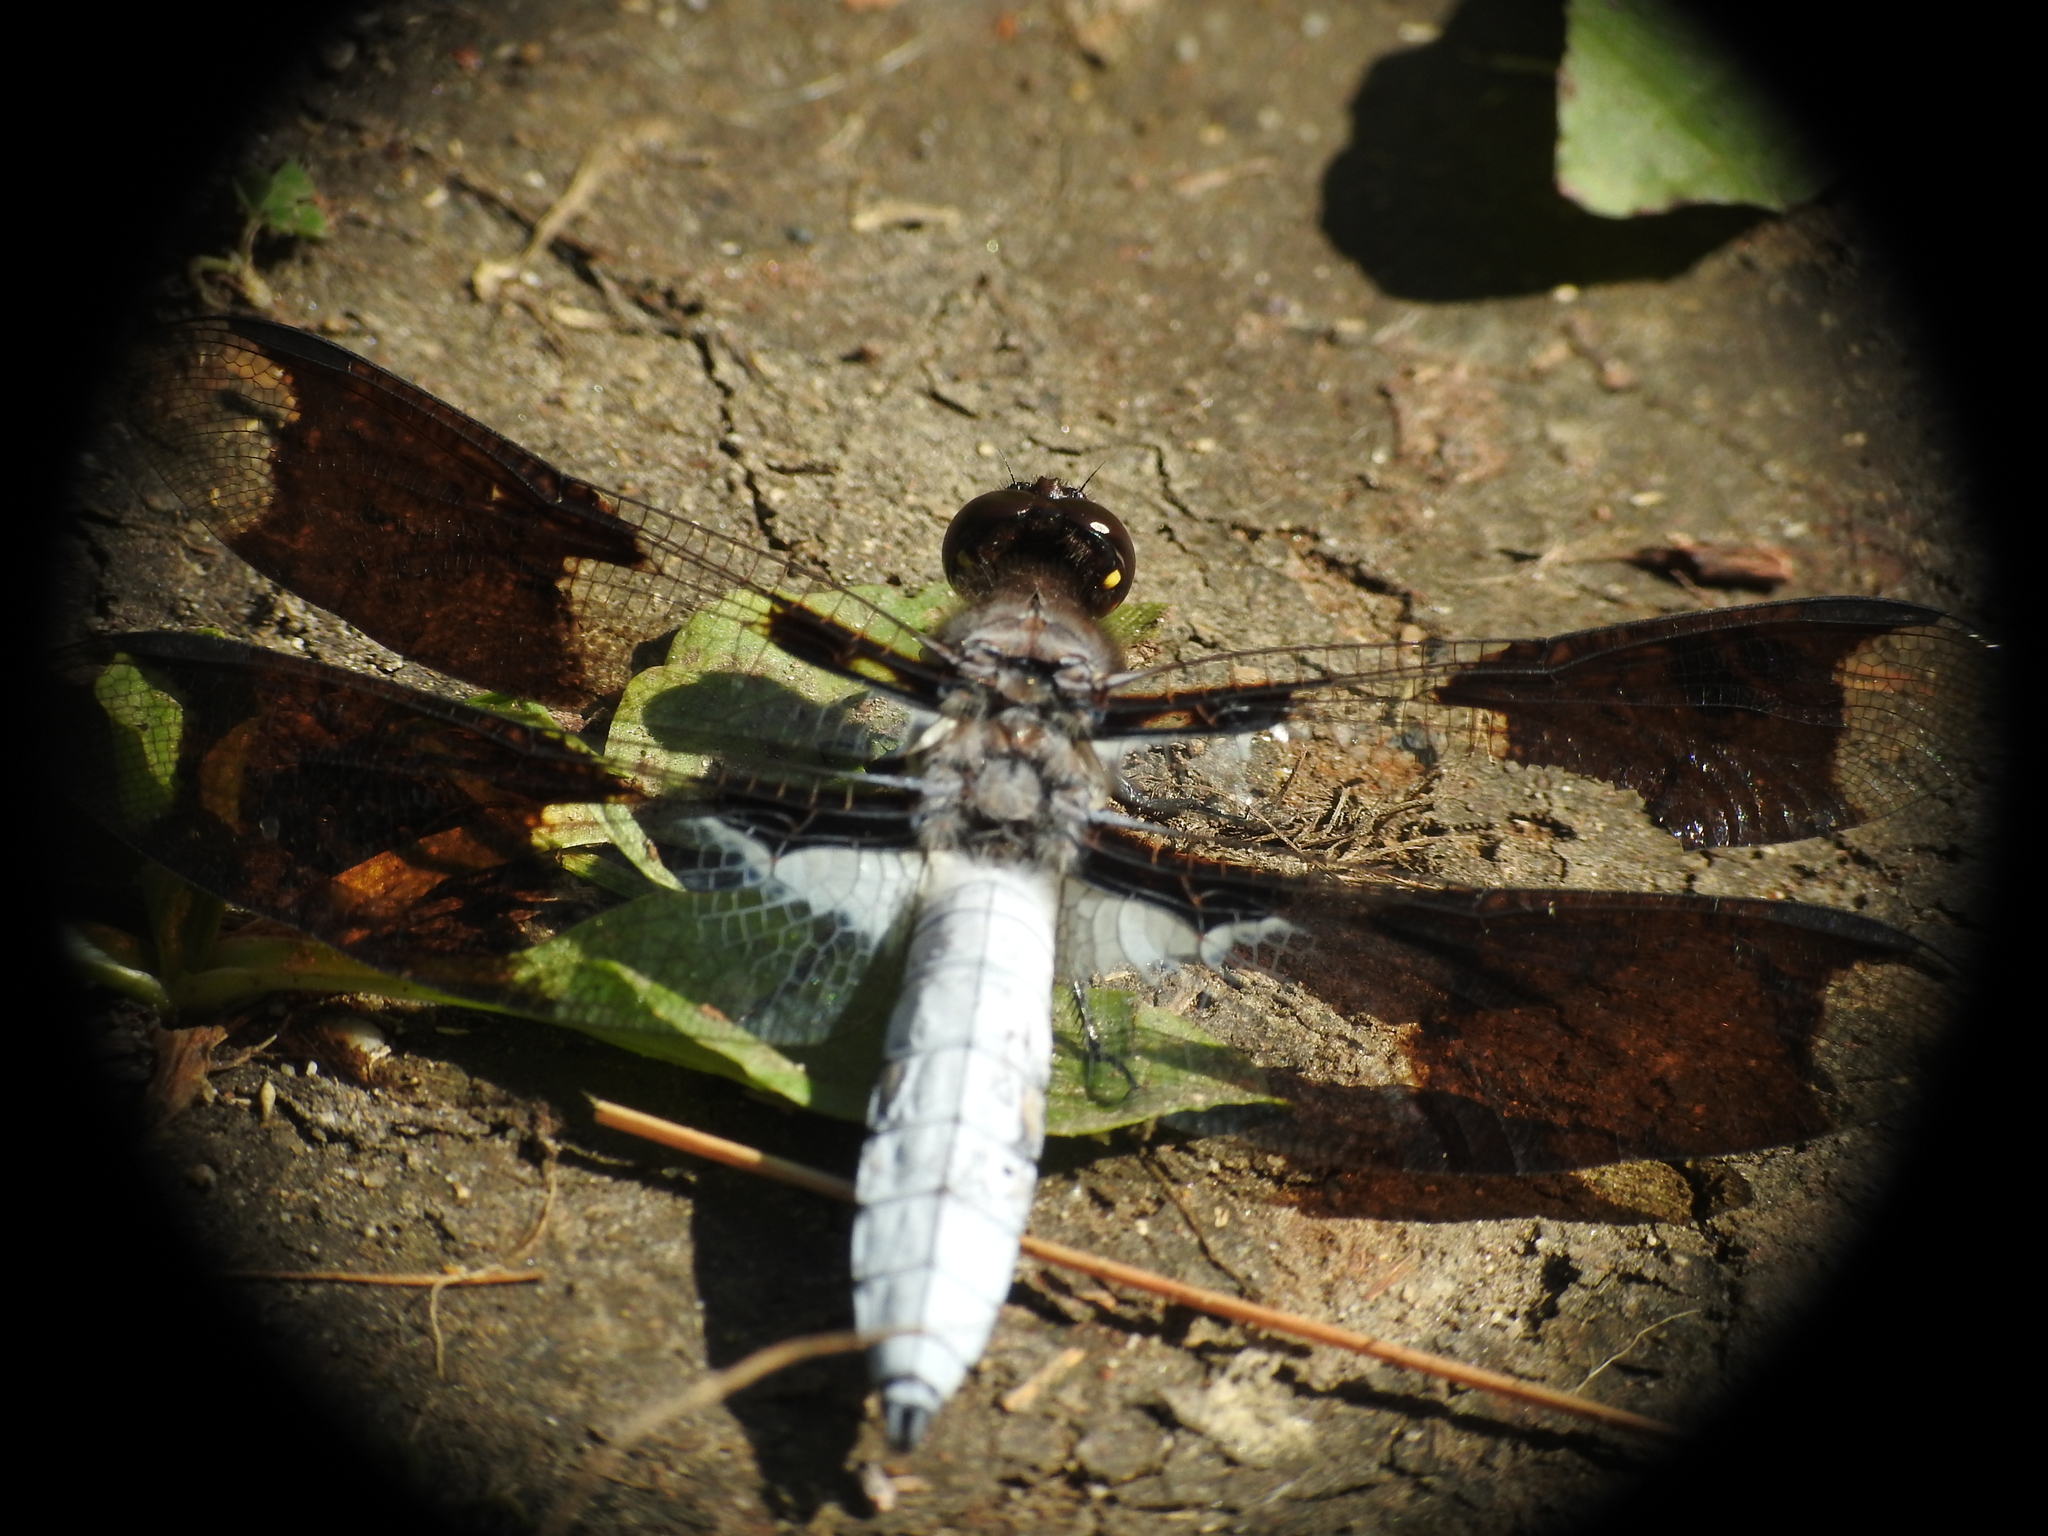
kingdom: Animalia
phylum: Arthropoda
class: Insecta
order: Odonata
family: Libellulidae
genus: Plathemis
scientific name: Plathemis lydia
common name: Common whitetail
